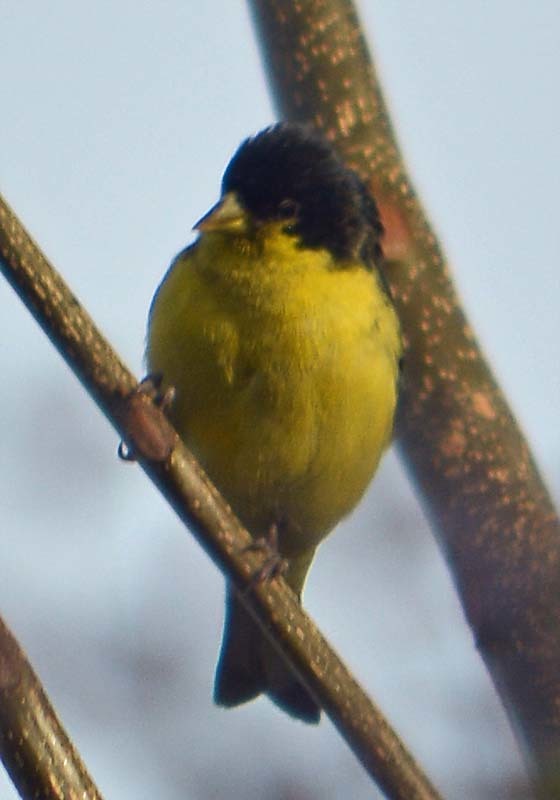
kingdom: Animalia
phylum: Chordata
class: Aves
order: Passeriformes
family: Fringillidae
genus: Spinus
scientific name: Spinus psaltria
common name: Lesser goldfinch
